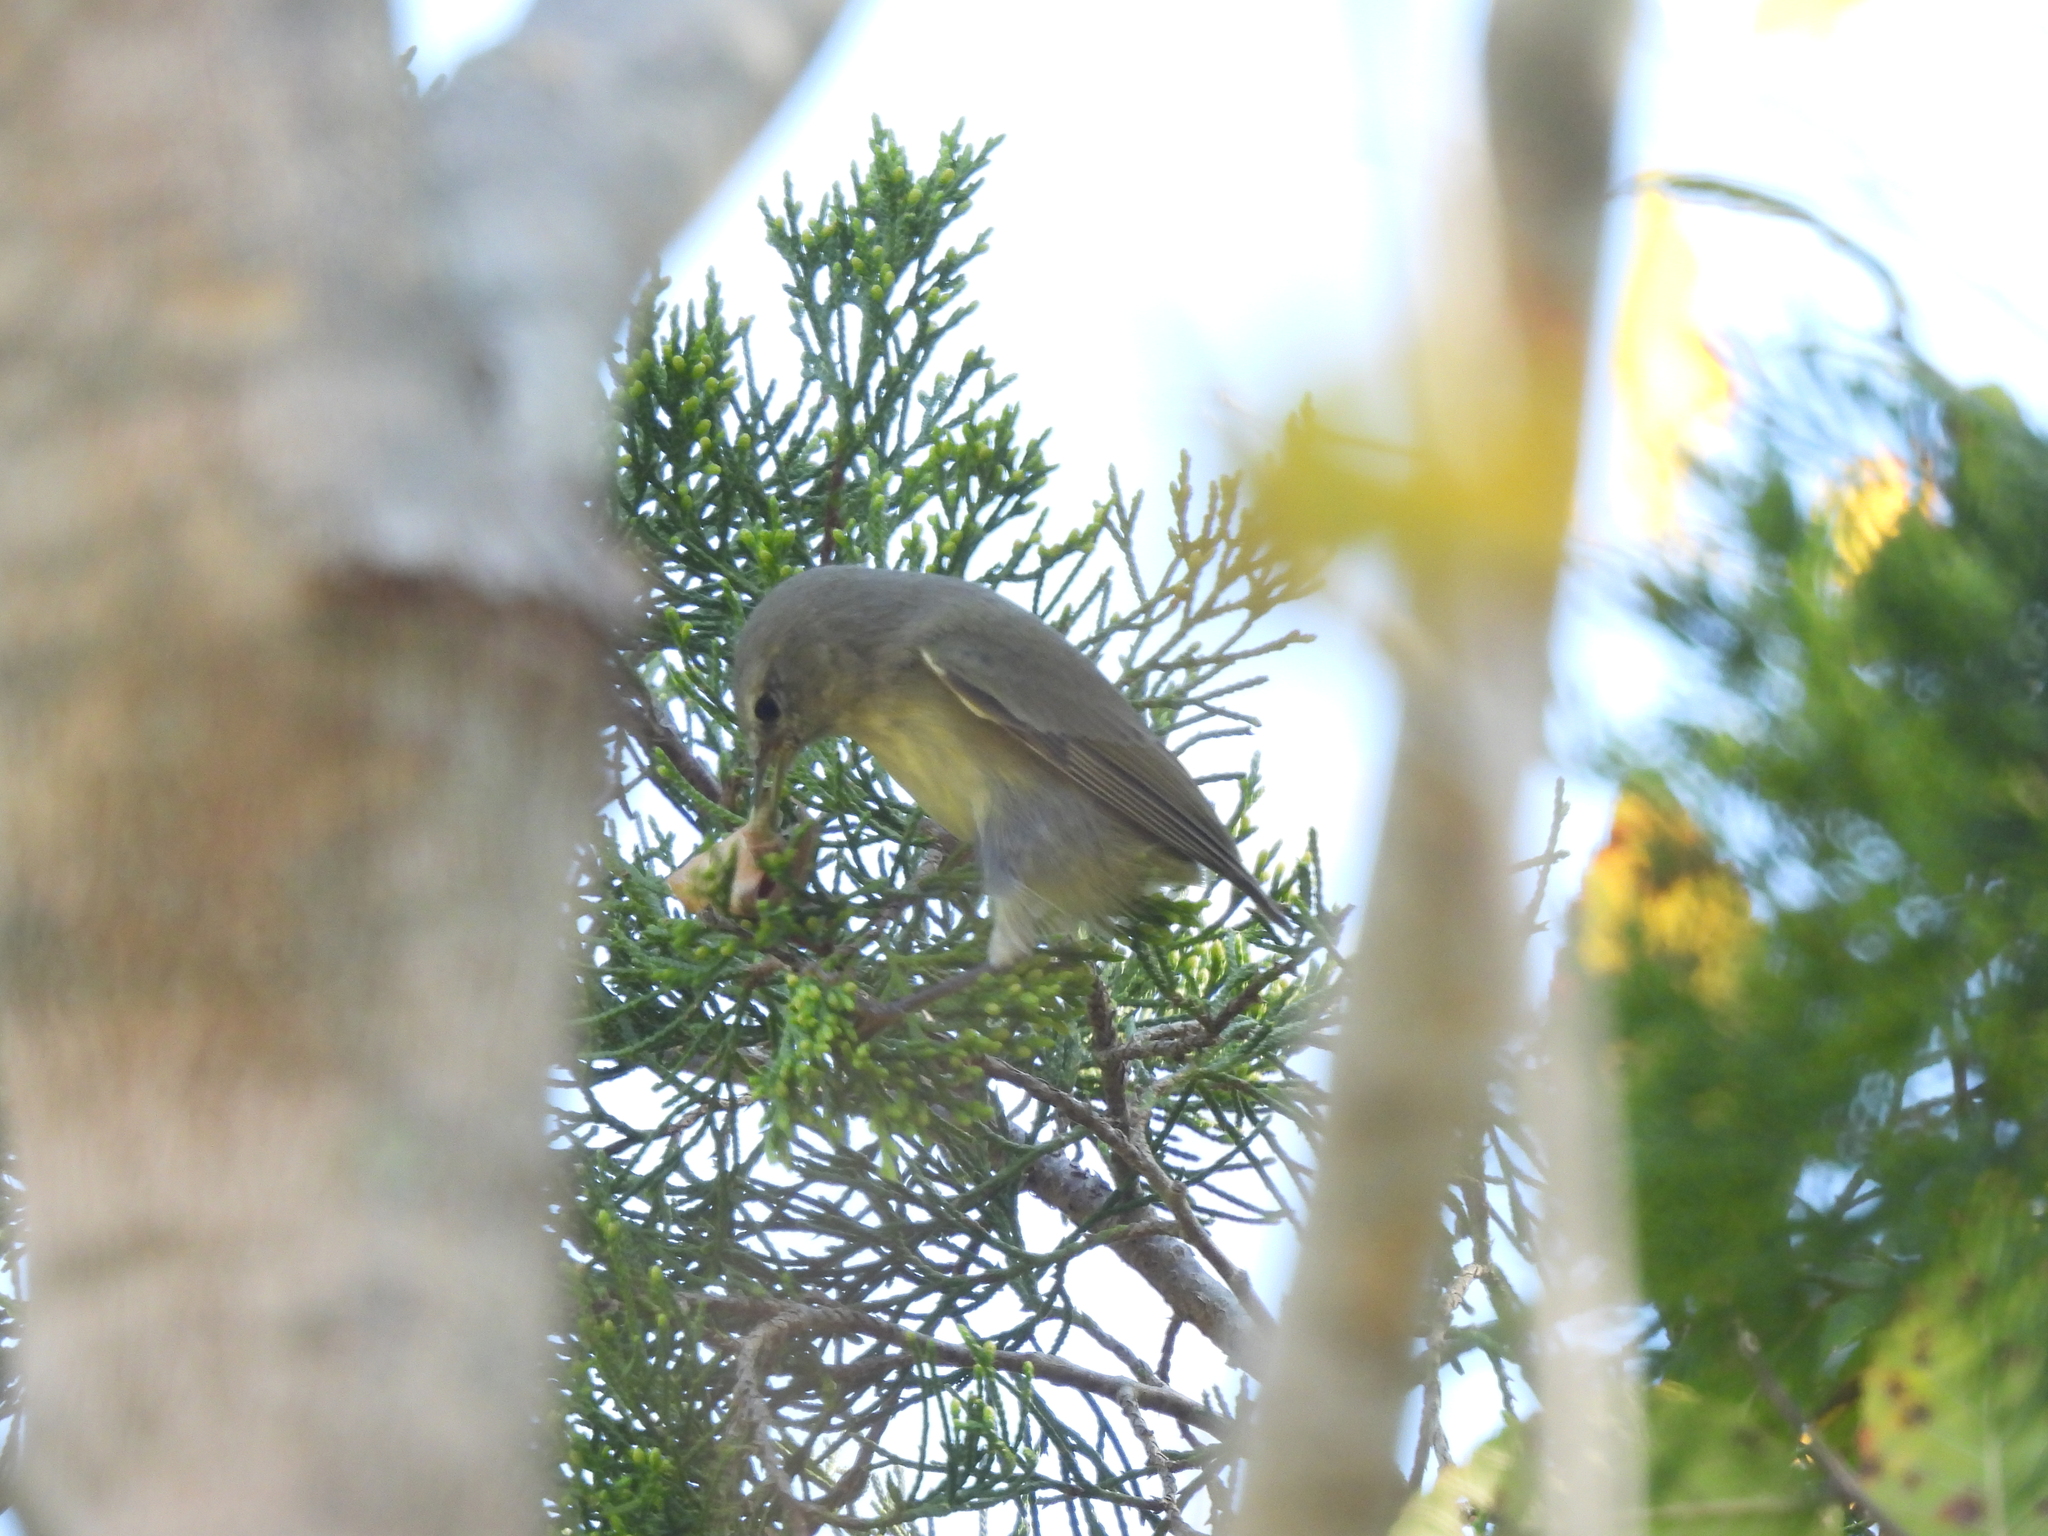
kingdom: Animalia
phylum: Chordata
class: Aves
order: Passeriformes
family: Parulidae
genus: Leiothlypis
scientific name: Leiothlypis celata
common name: Orange-crowned warbler
